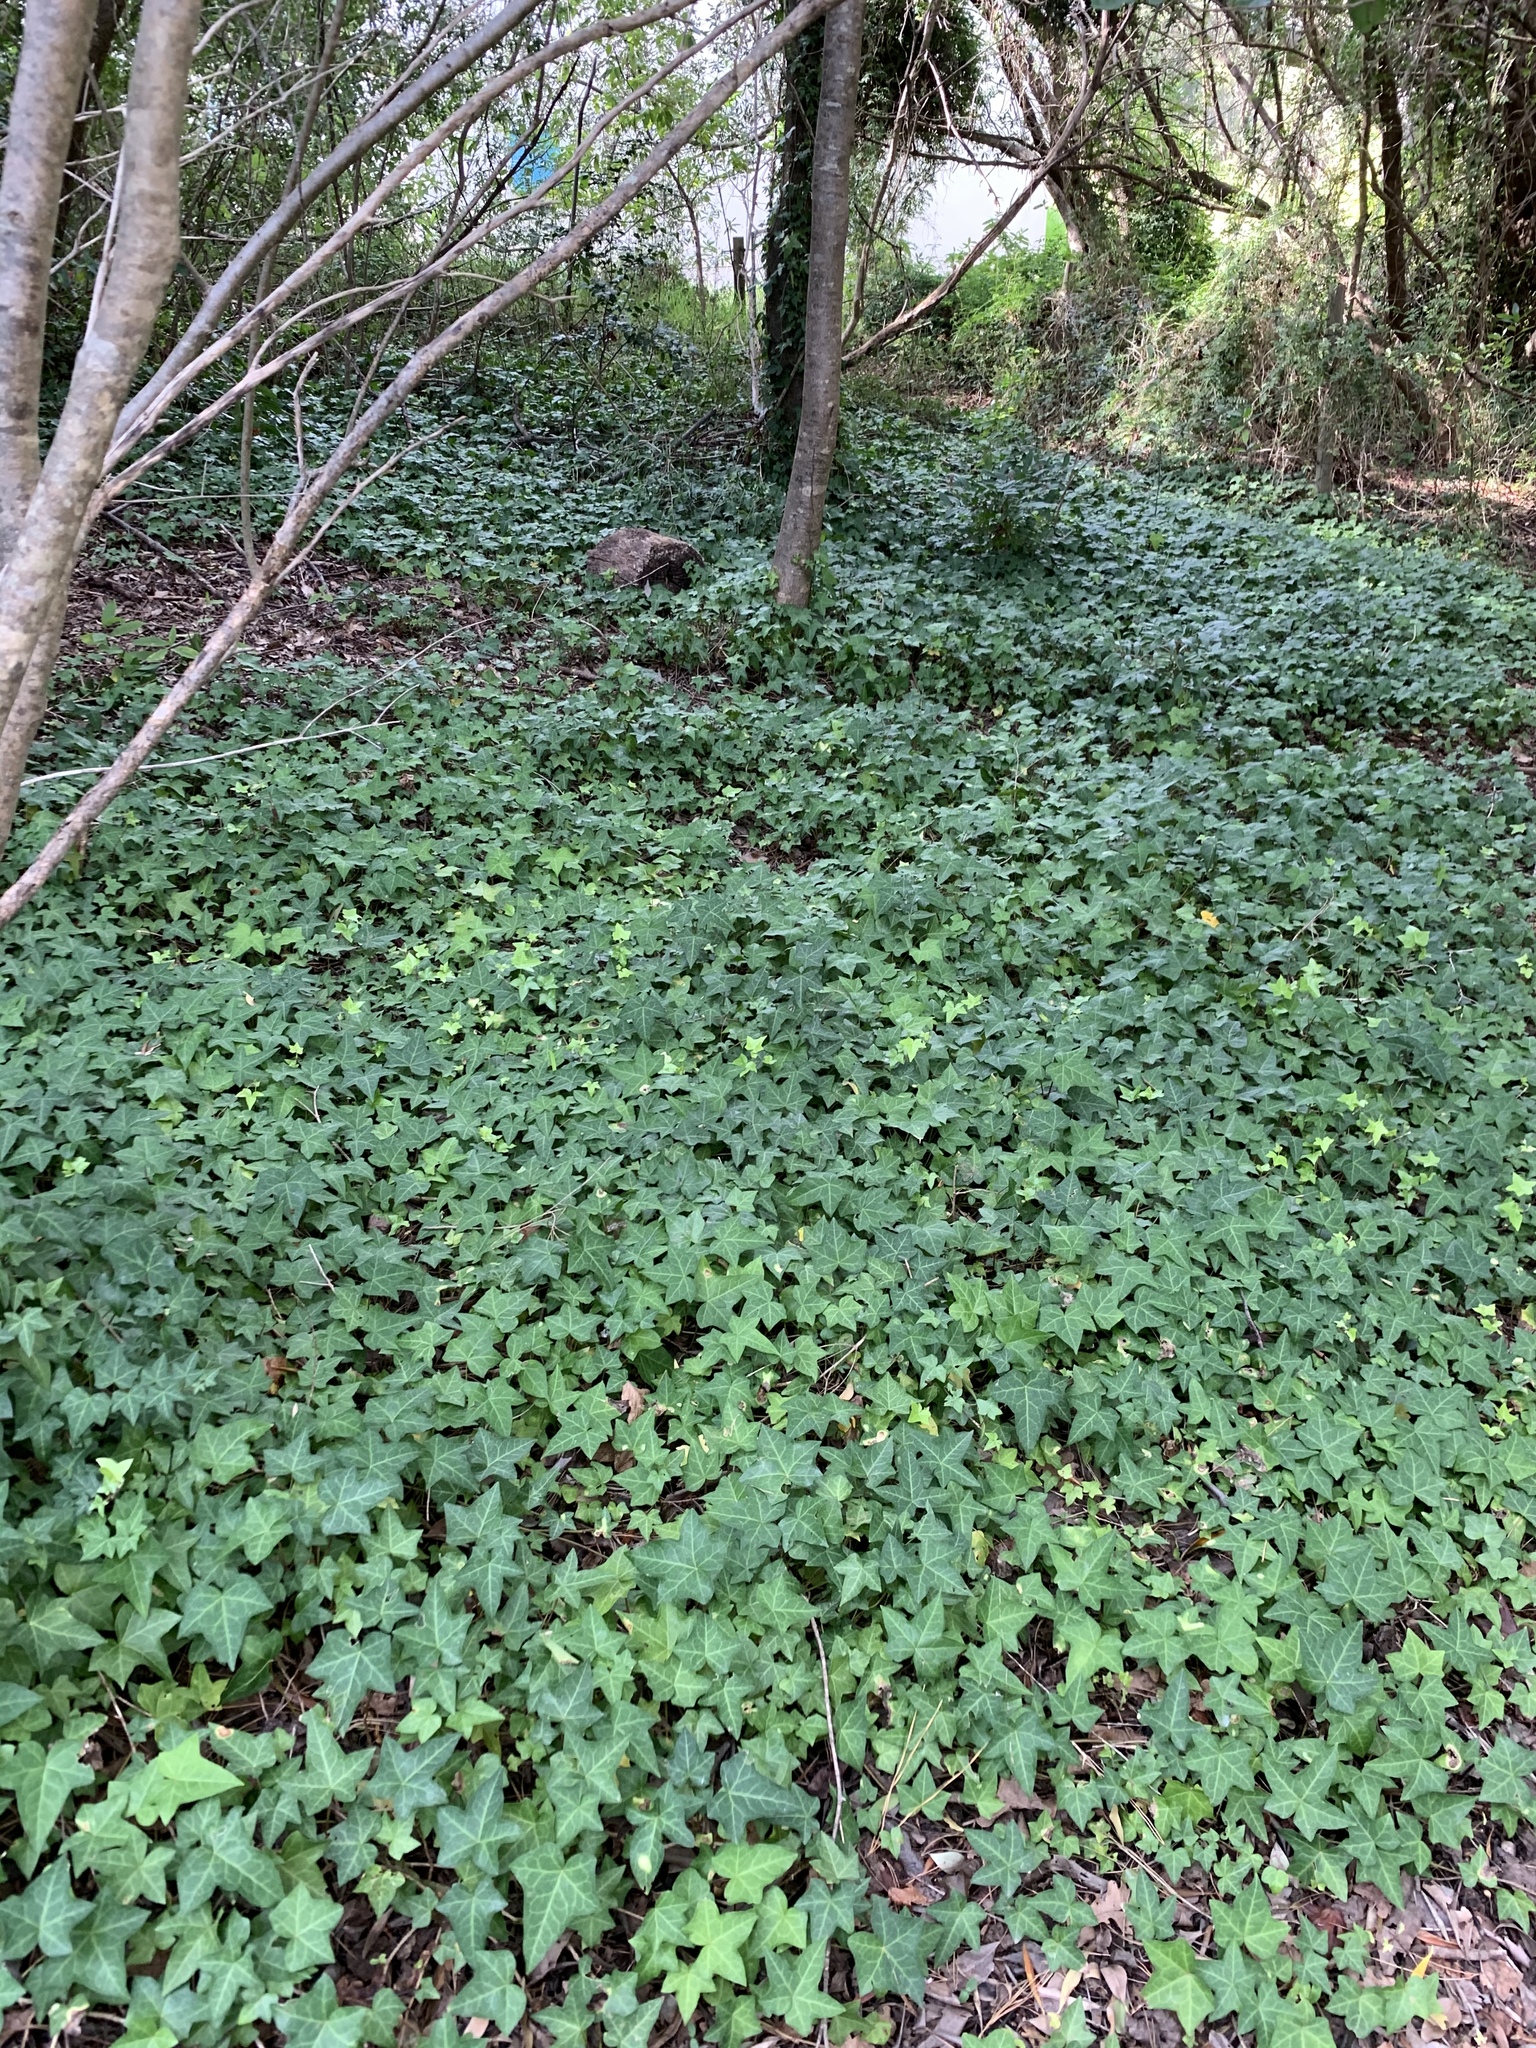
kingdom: Plantae
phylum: Tracheophyta
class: Magnoliopsida
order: Apiales
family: Araliaceae
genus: Hedera
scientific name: Hedera helix
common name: Ivy
